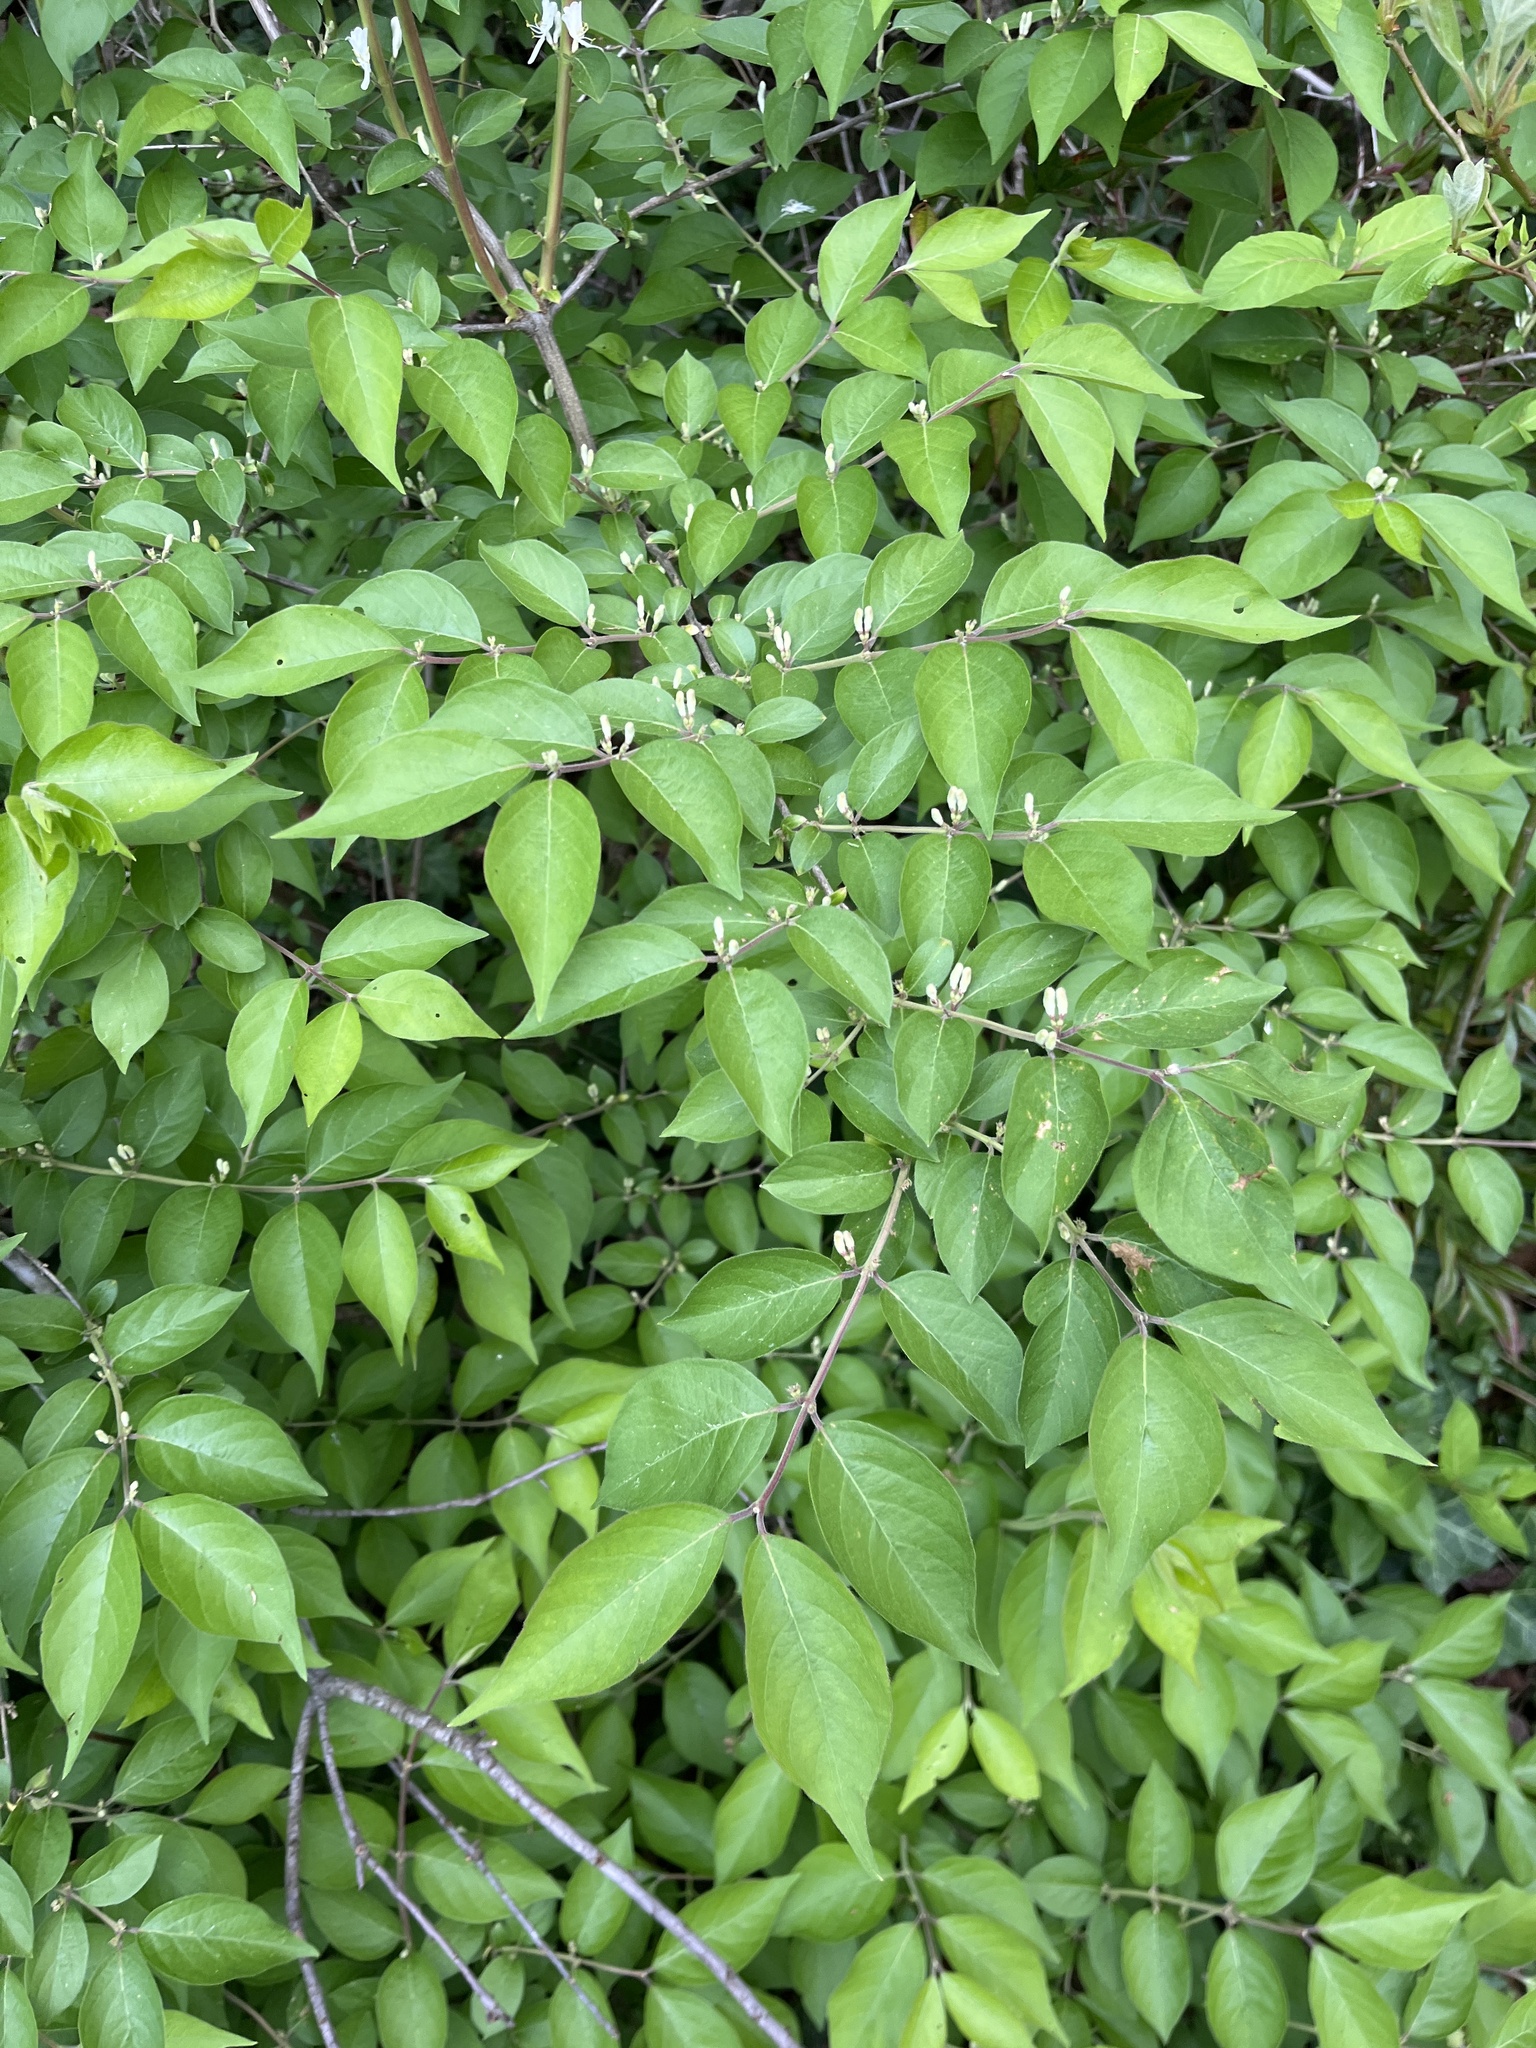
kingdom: Plantae
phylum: Tracheophyta
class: Magnoliopsida
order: Dipsacales
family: Caprifoliaceae
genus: Lonicera
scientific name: Lonicera maackii
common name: Amur honeysuckle
